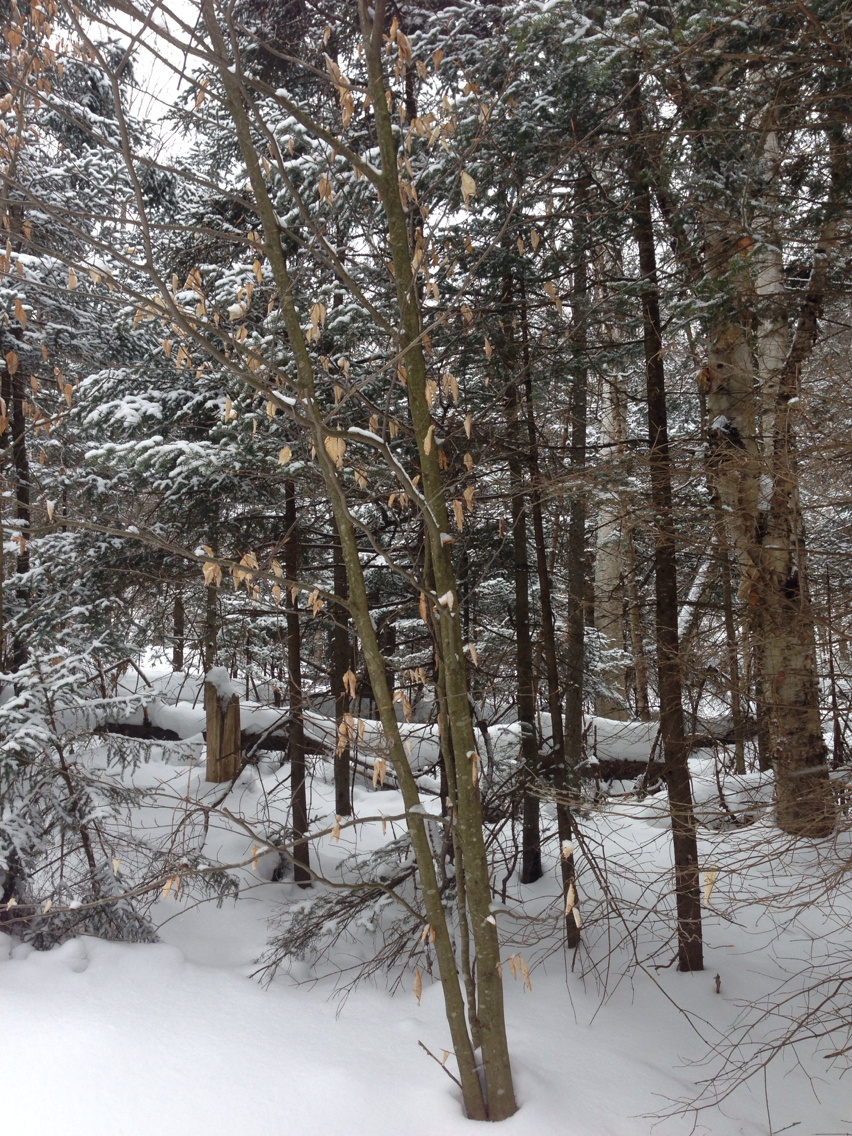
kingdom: Plantae
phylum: Tracheophyta
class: Magnoliopsida
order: Fagales
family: Fagaceae
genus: Fagus
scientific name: Fagus grandifolia
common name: American beech
